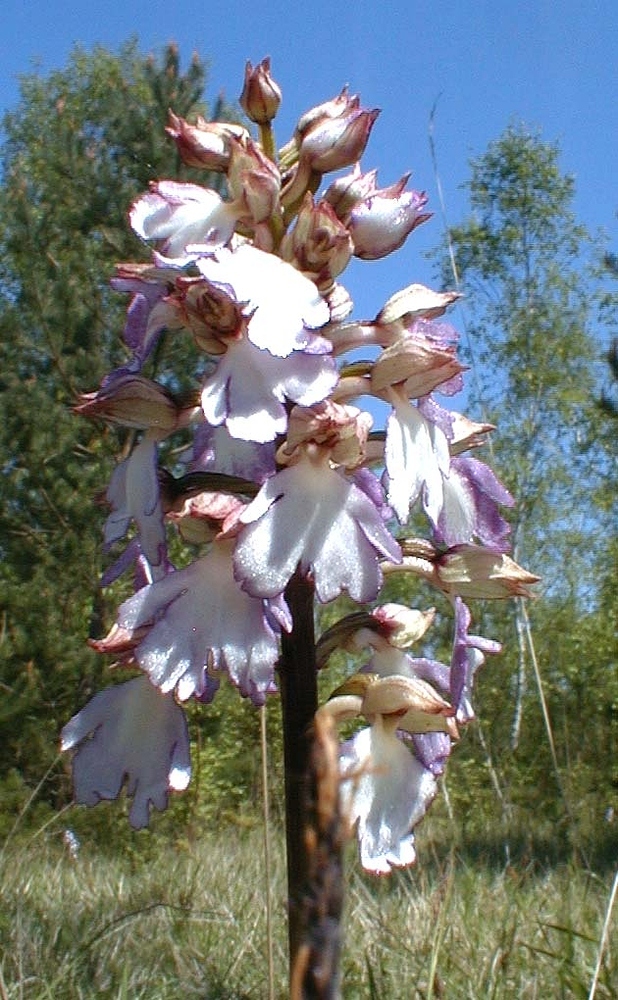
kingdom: Plantae
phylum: Tracheophyta
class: Liliopsida
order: Asparagales
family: Orchidaceae
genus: Orchis
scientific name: Orchis purpurea
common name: Lady orchid
